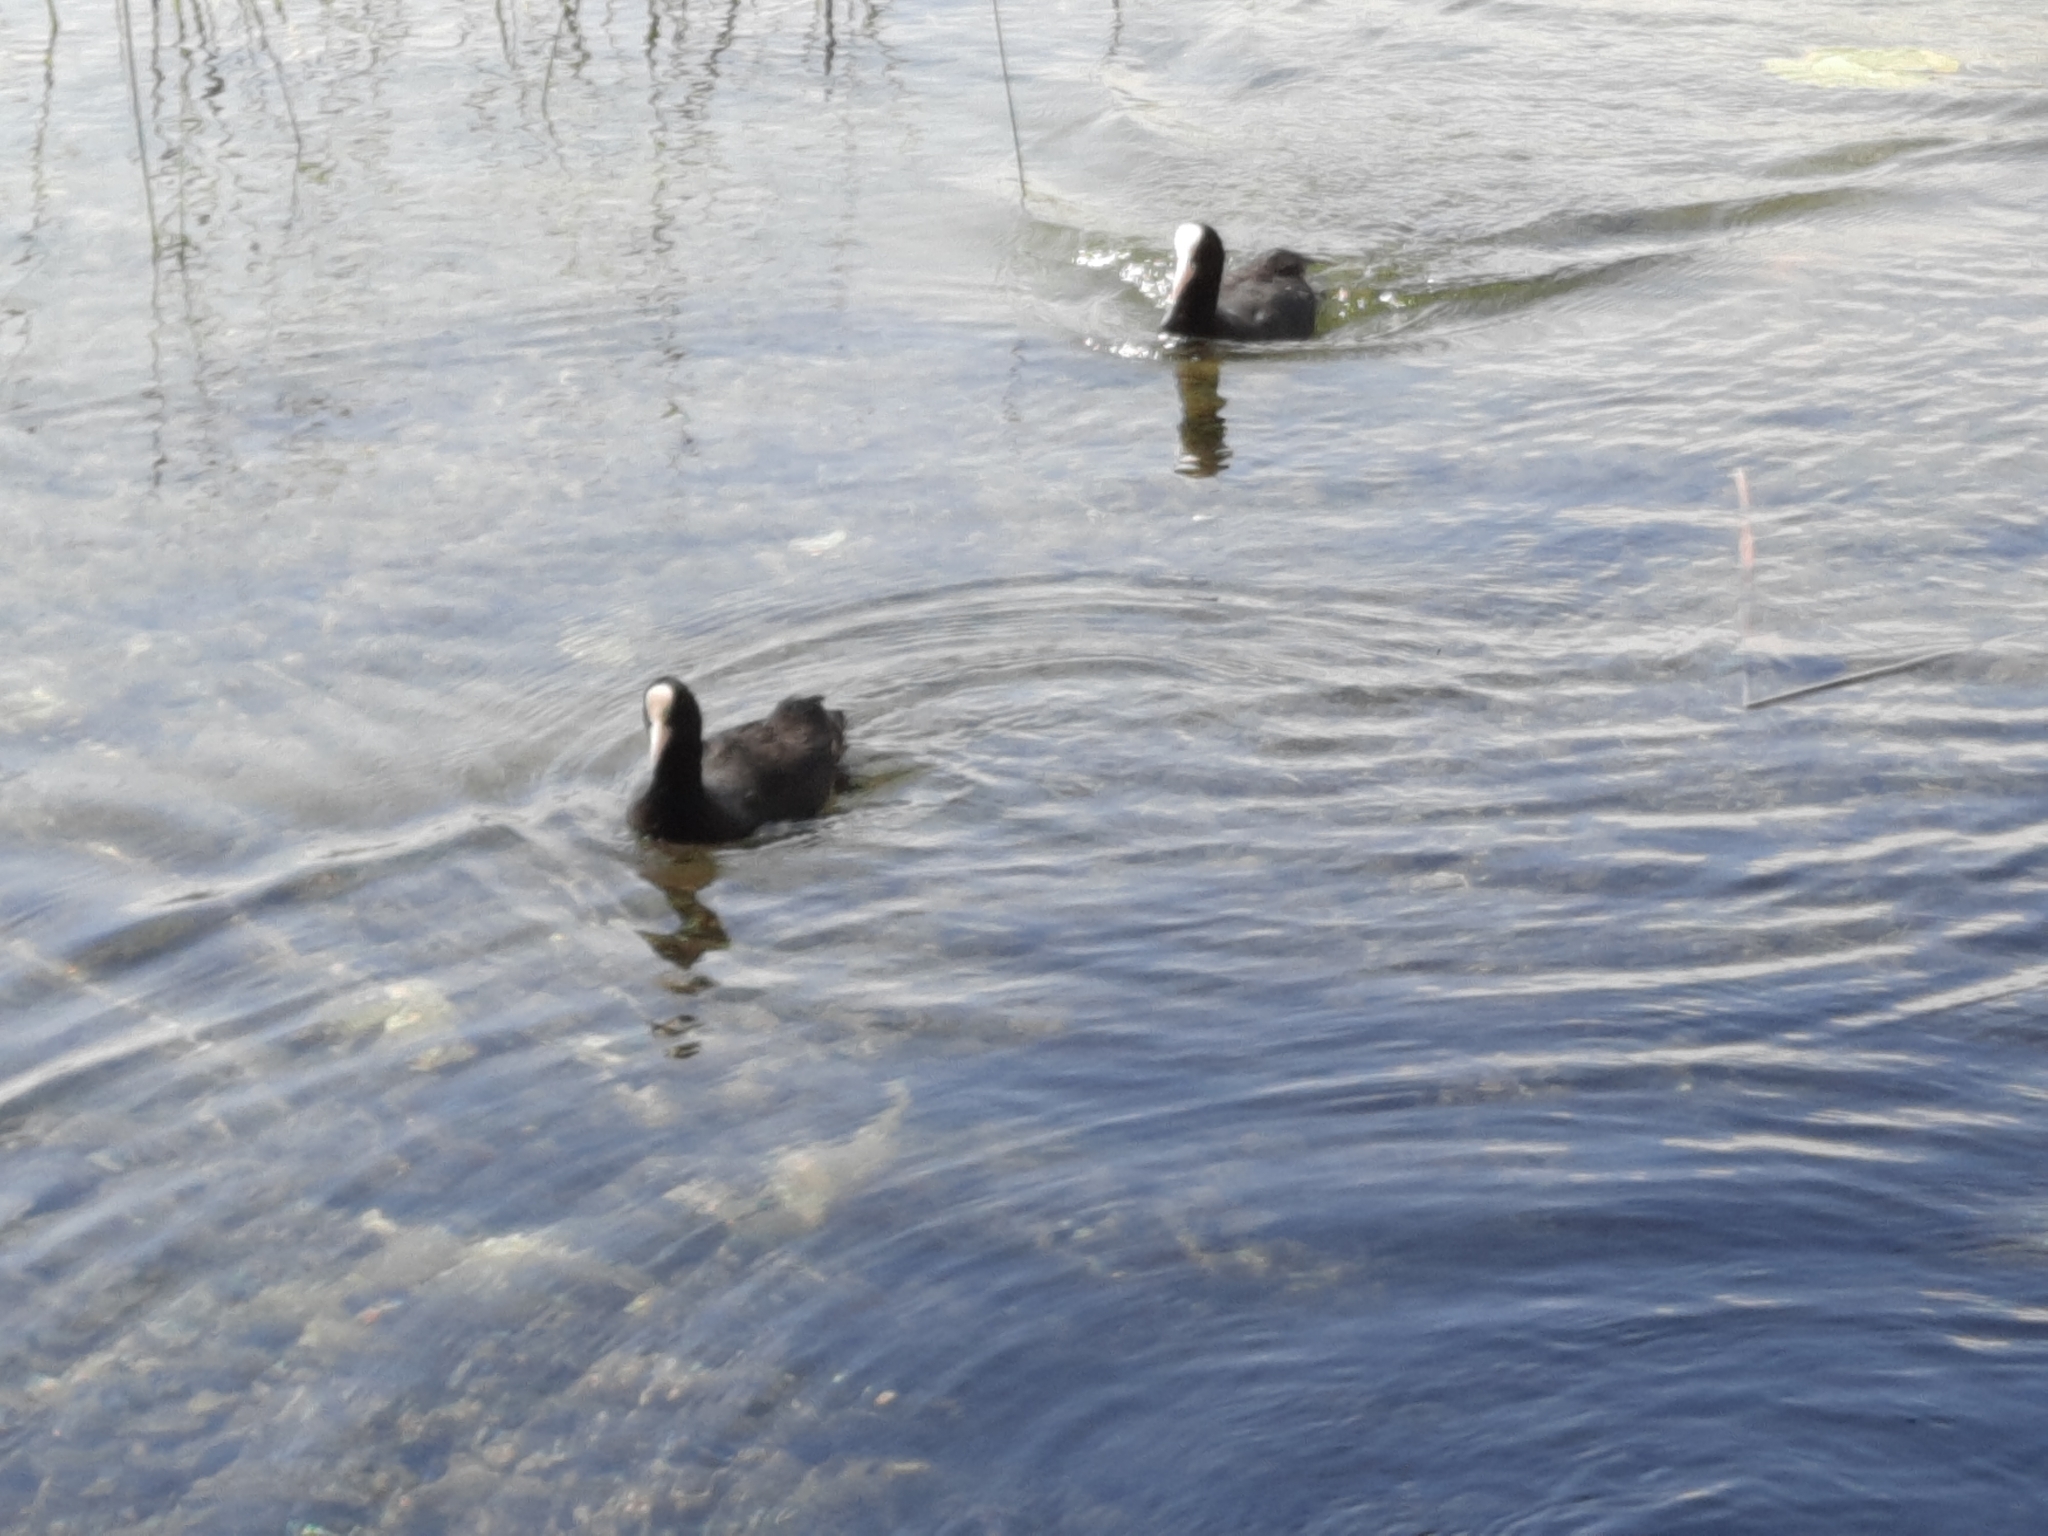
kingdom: Animalia
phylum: Chordata
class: Aves
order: Gruiformes
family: Rallidae
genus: Fulica
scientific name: Fulica atra
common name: Eurasian coot
